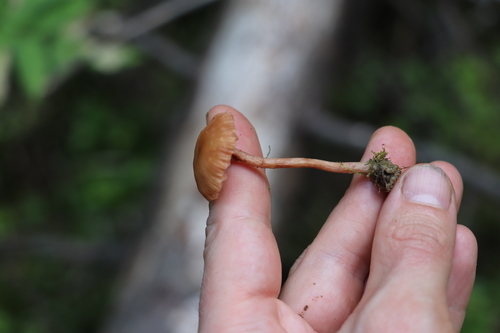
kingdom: Fungi
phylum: Basidiomycota
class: Agaricomycetes
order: Agaricales
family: Hydnangiaceae
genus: Laccaria
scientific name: Laccaria laccata
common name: Deceiver
